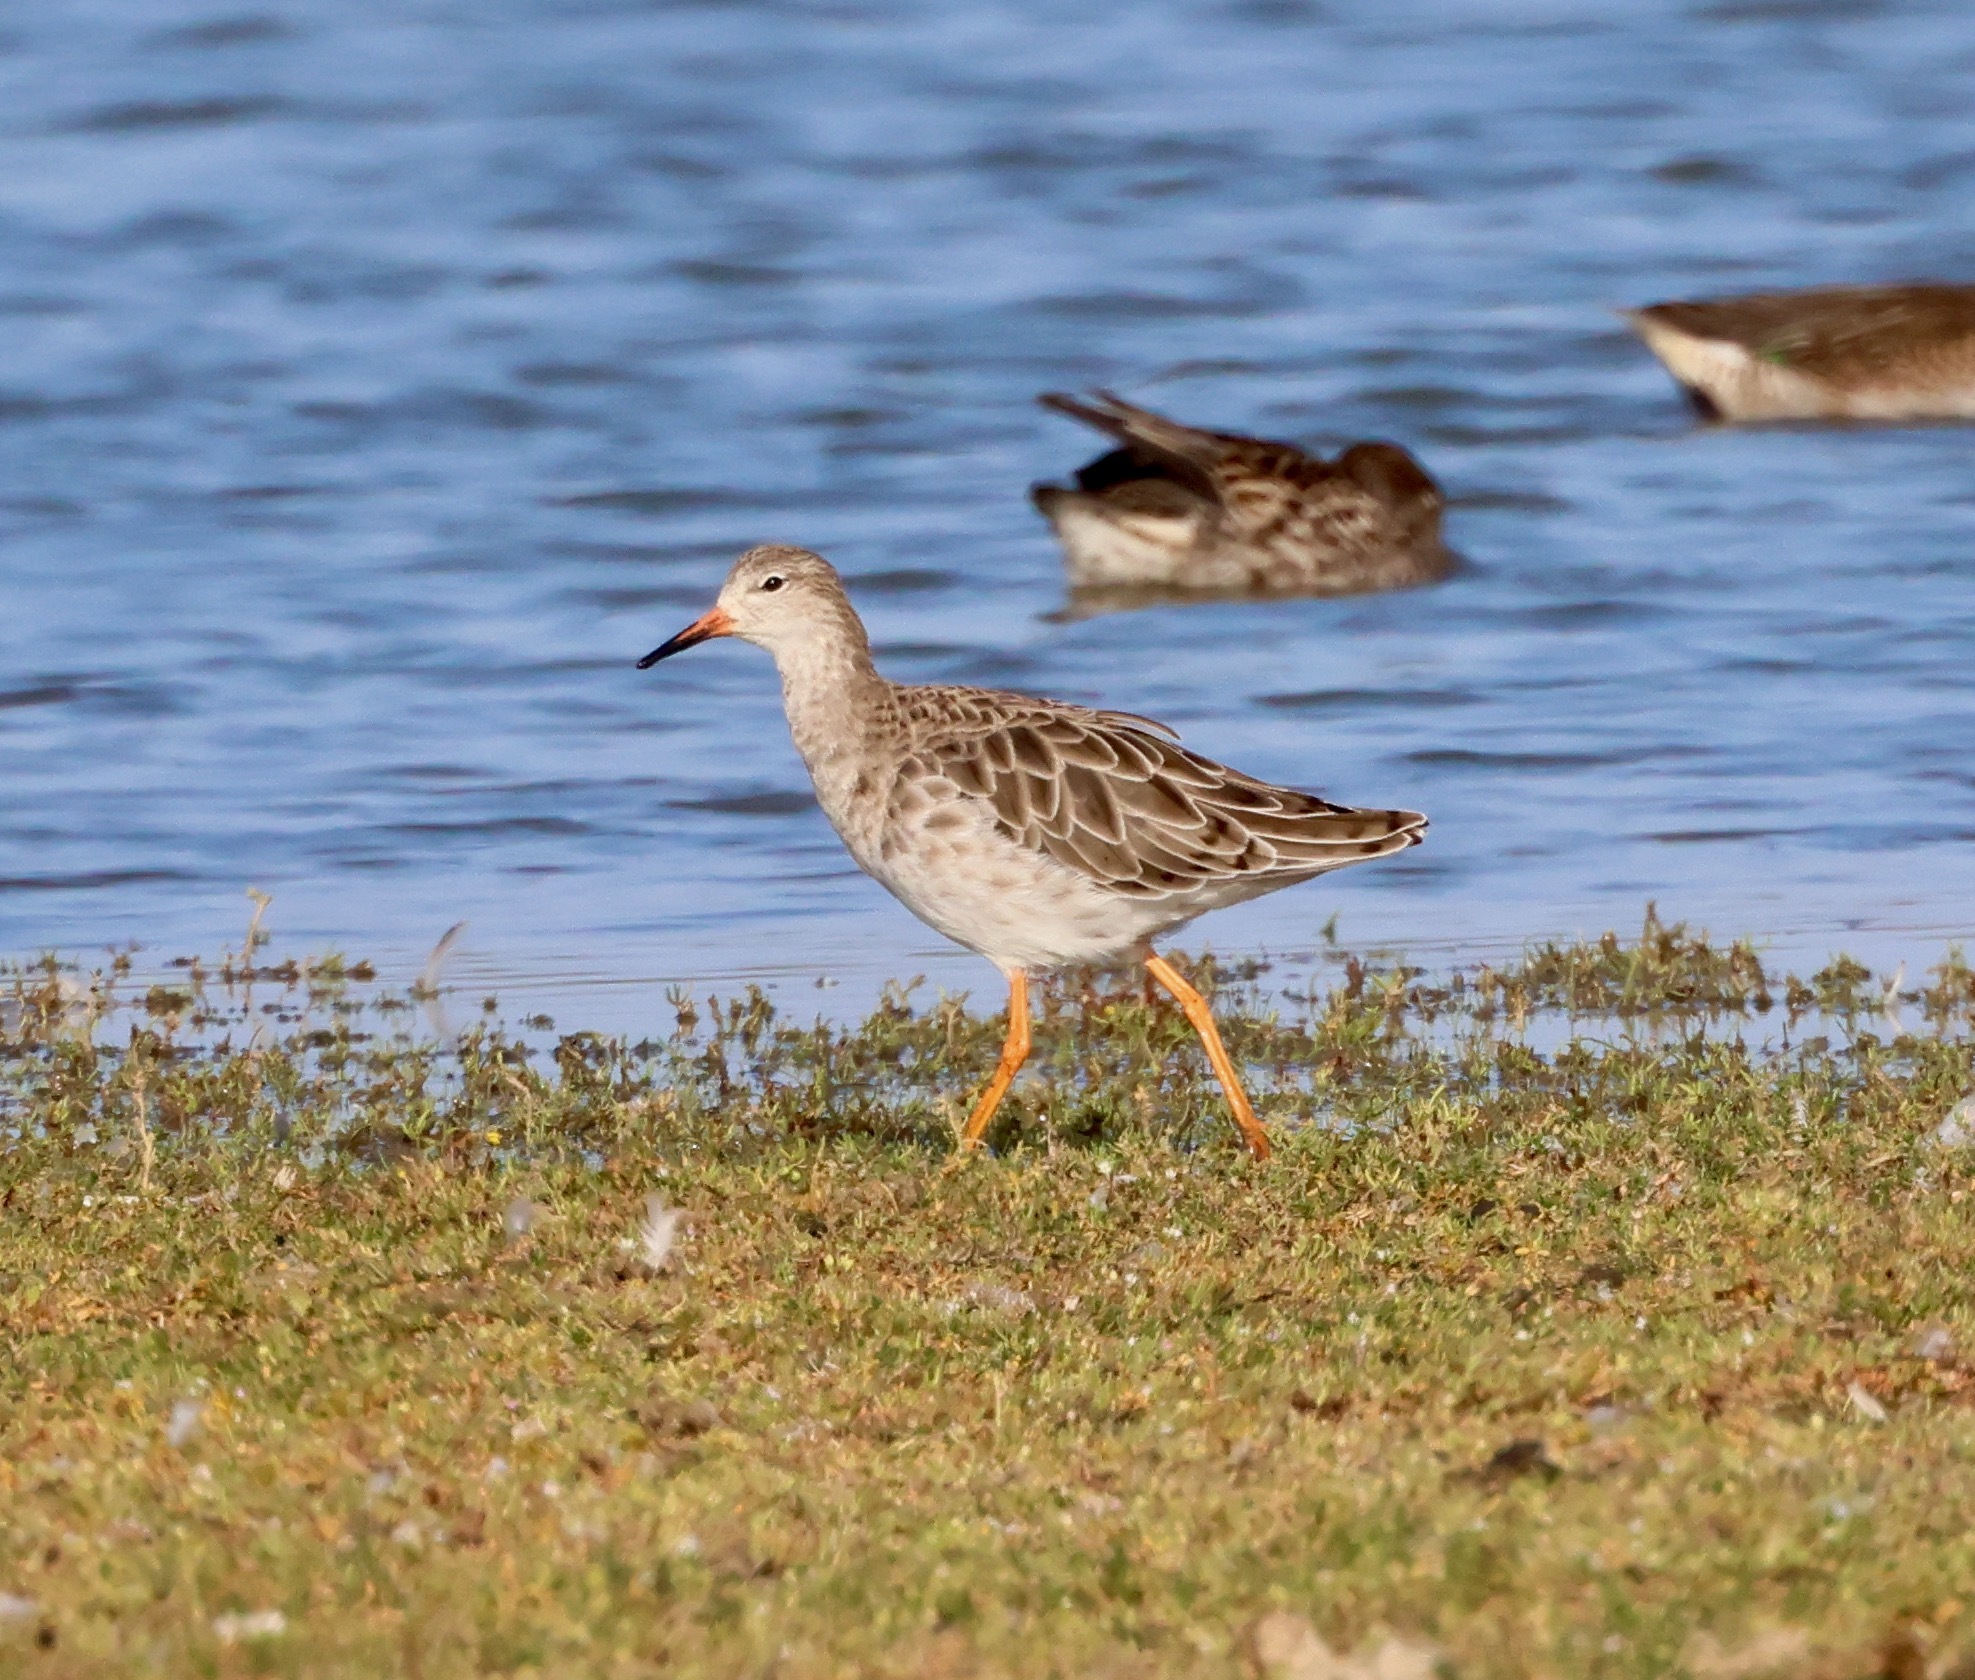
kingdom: Animalia
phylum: Chordata
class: Aves
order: Charadriiformes
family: Scolopacidae
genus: Calidris
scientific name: Calidris pugnax
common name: Ruff
